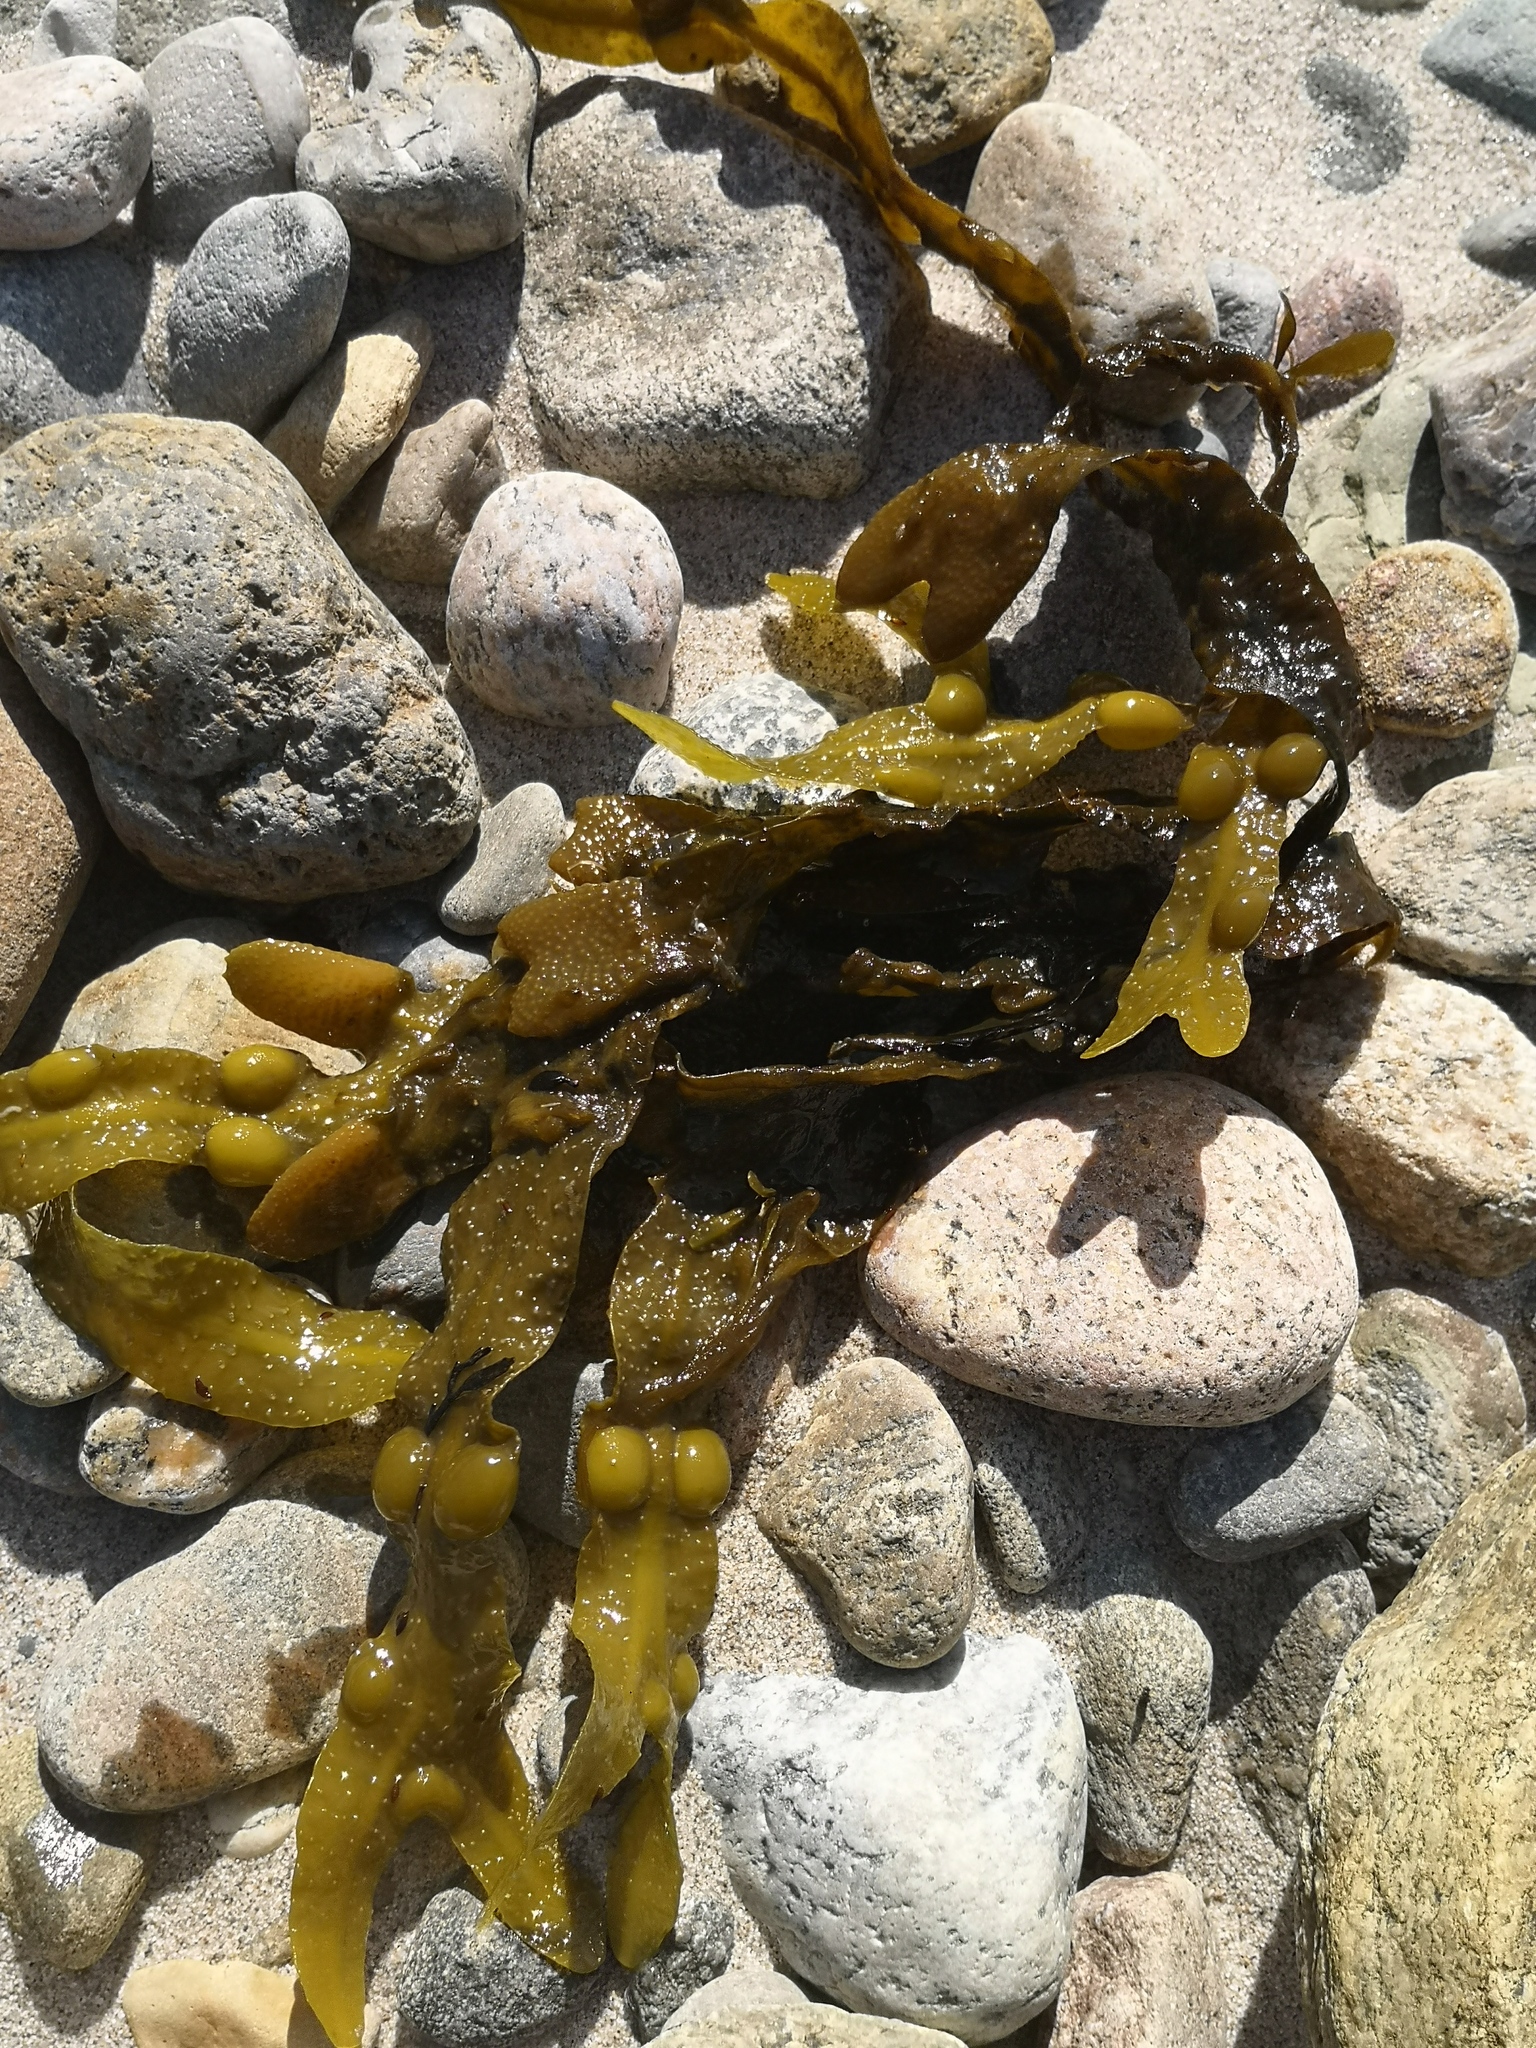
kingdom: Chromista
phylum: Ochrophyta
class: Phaeophyceae
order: Fucales
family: Fucaceae
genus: Fucus
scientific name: Fucus vesiculosus
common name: Bladder wrack
